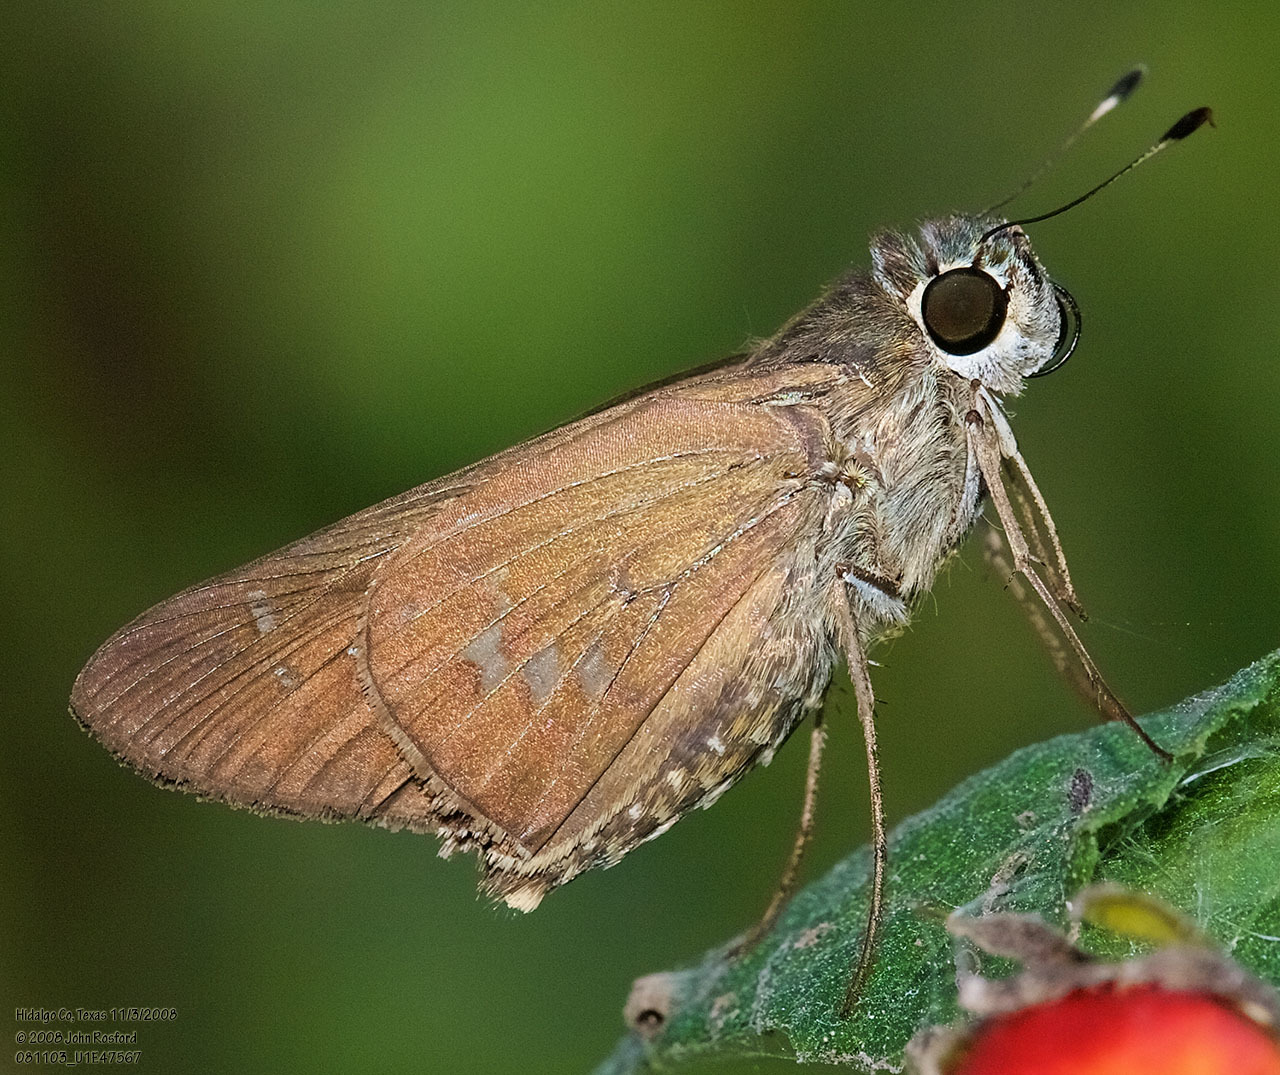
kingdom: Animalia
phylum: Arthropoda
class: Insecta
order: Lepidoptera
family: Hesperiidae
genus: Calpodes
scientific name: Calpodes ethlius
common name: Brazilian skipper
